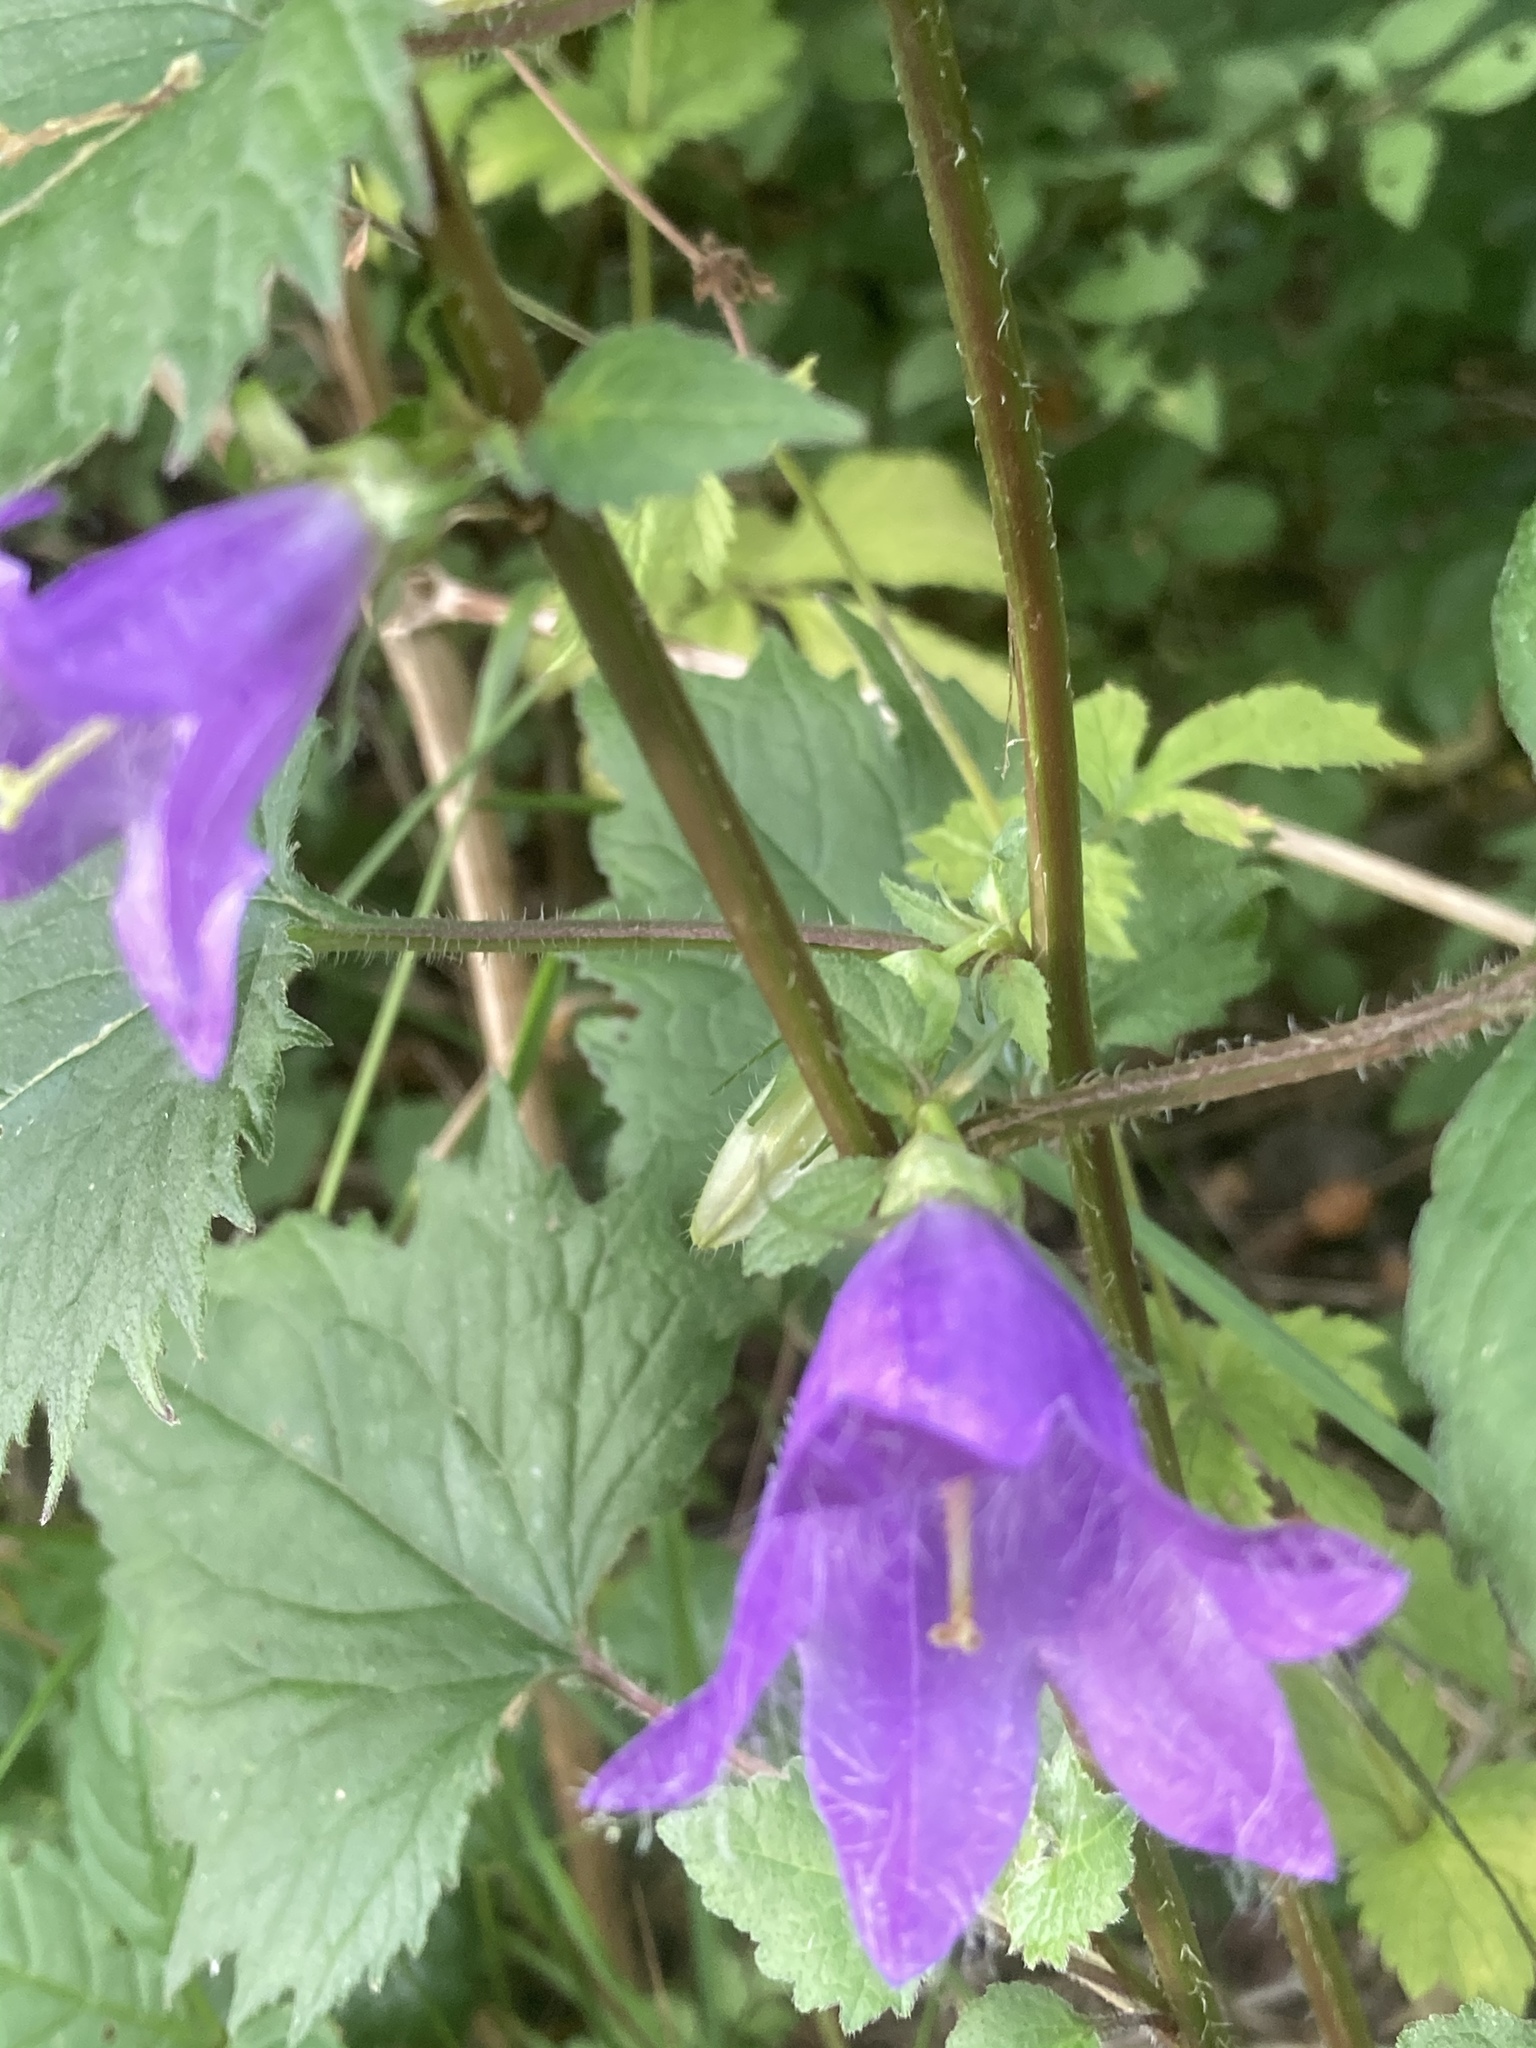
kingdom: Plantae
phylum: Tracheophyta
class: Magnoliopsida
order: Asterales
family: Campanulaceae
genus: Campanula
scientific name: Campanula trachelium
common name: Nettle-leaved bellflower
